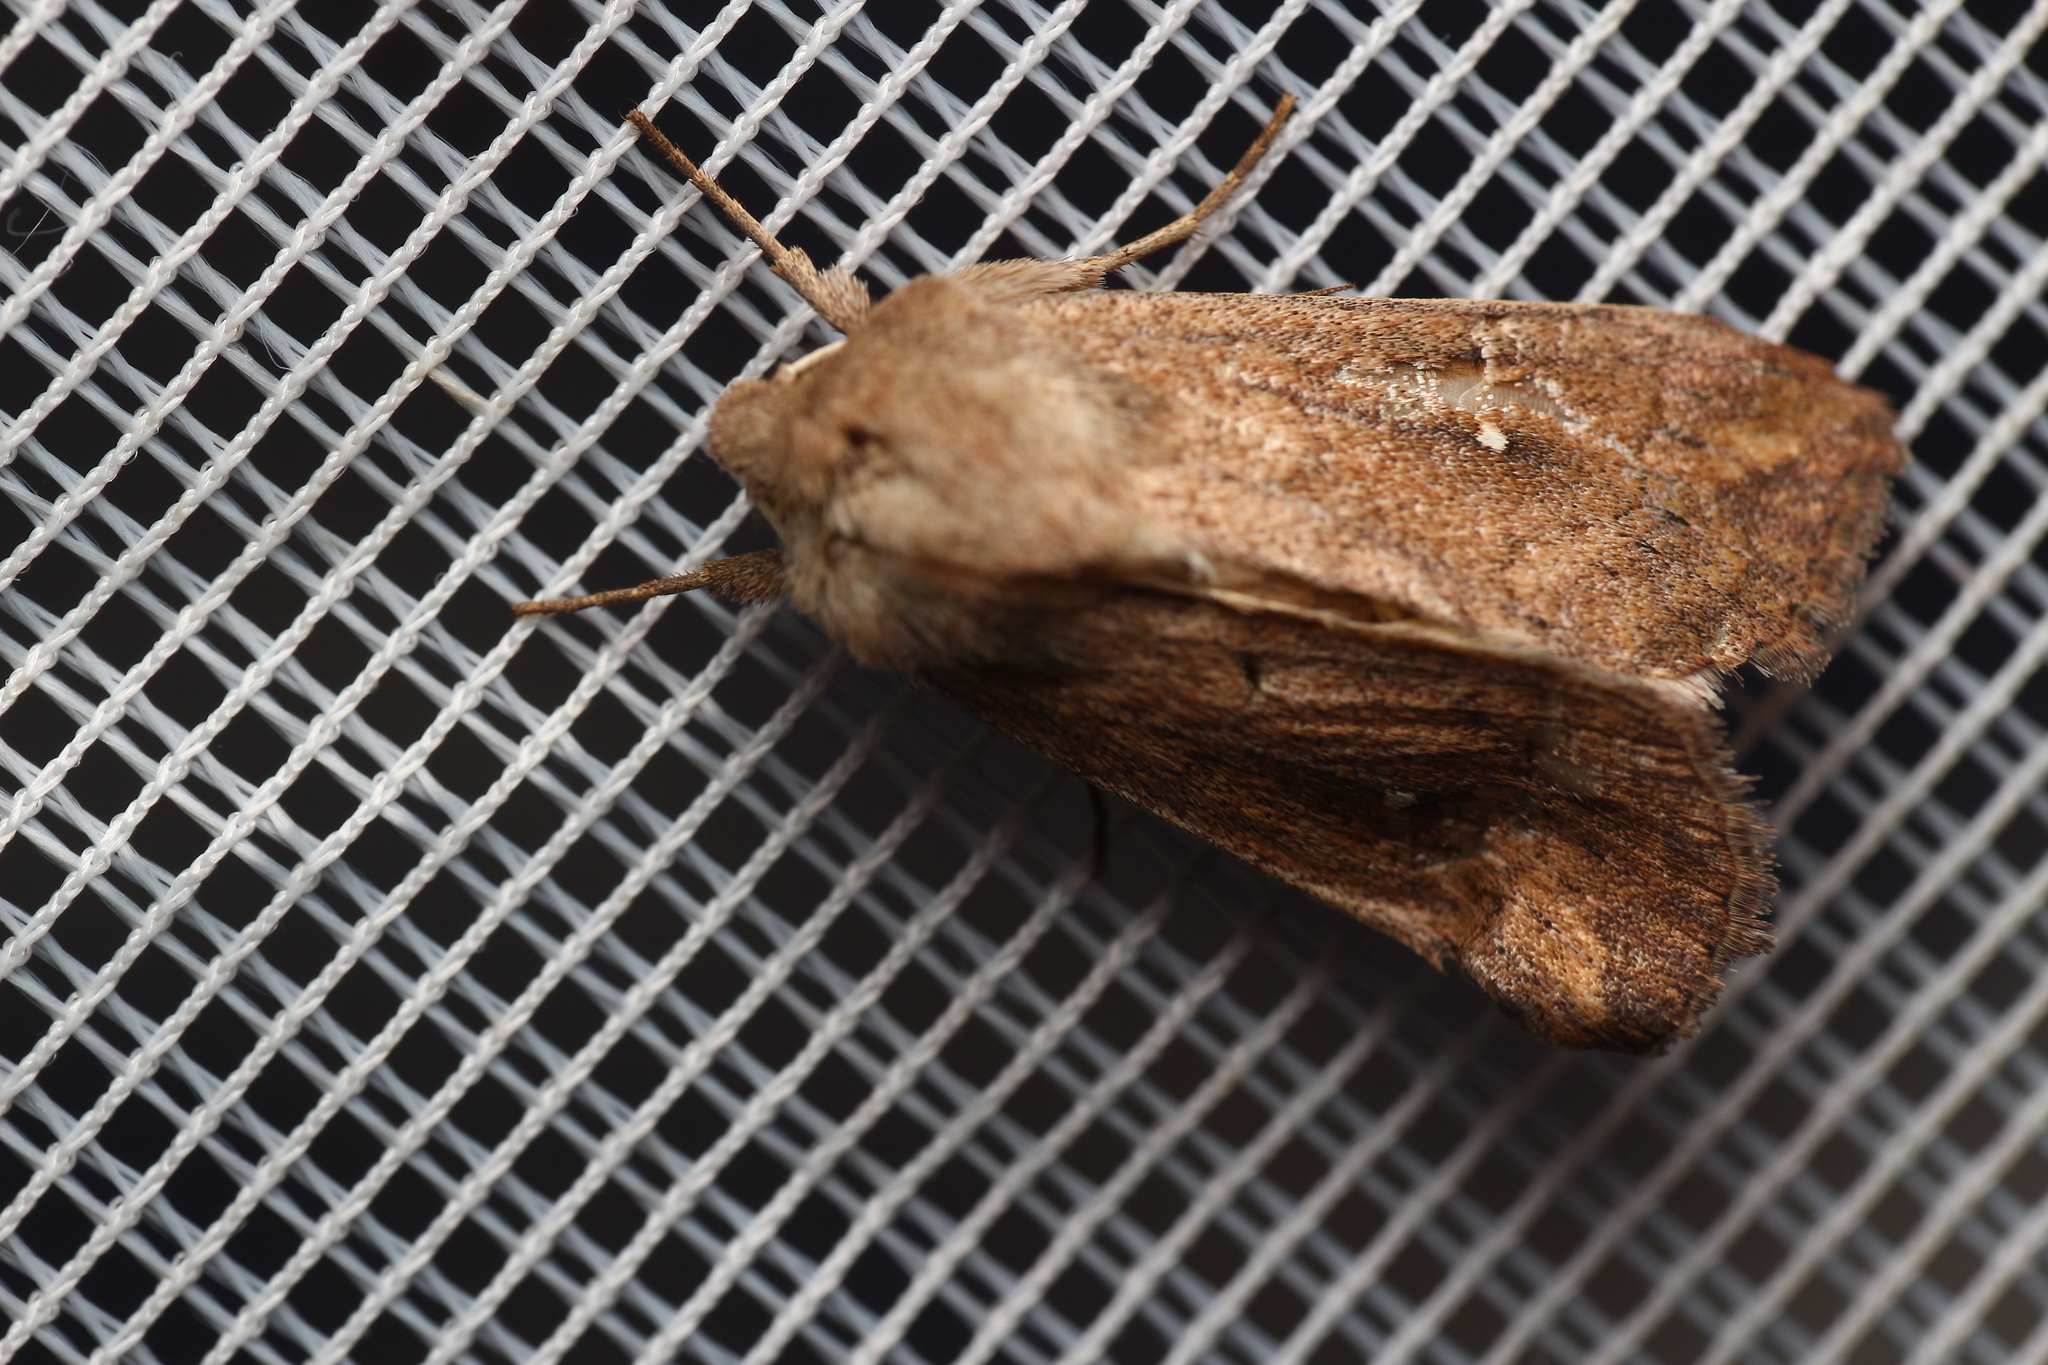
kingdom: Animalia
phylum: Arthropoda
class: Insecta
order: Lepidoptera
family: Noctuidae
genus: Mythimna
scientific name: Mythimna albipuncta
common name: White-point
